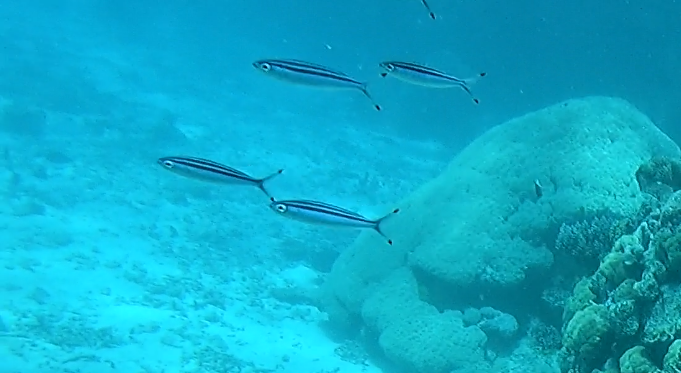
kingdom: Animalia
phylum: Chordata
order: Perciformes
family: Caesionidae
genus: Pterocaesio
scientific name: Pterocaesio trilineata
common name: Striped fusilier
